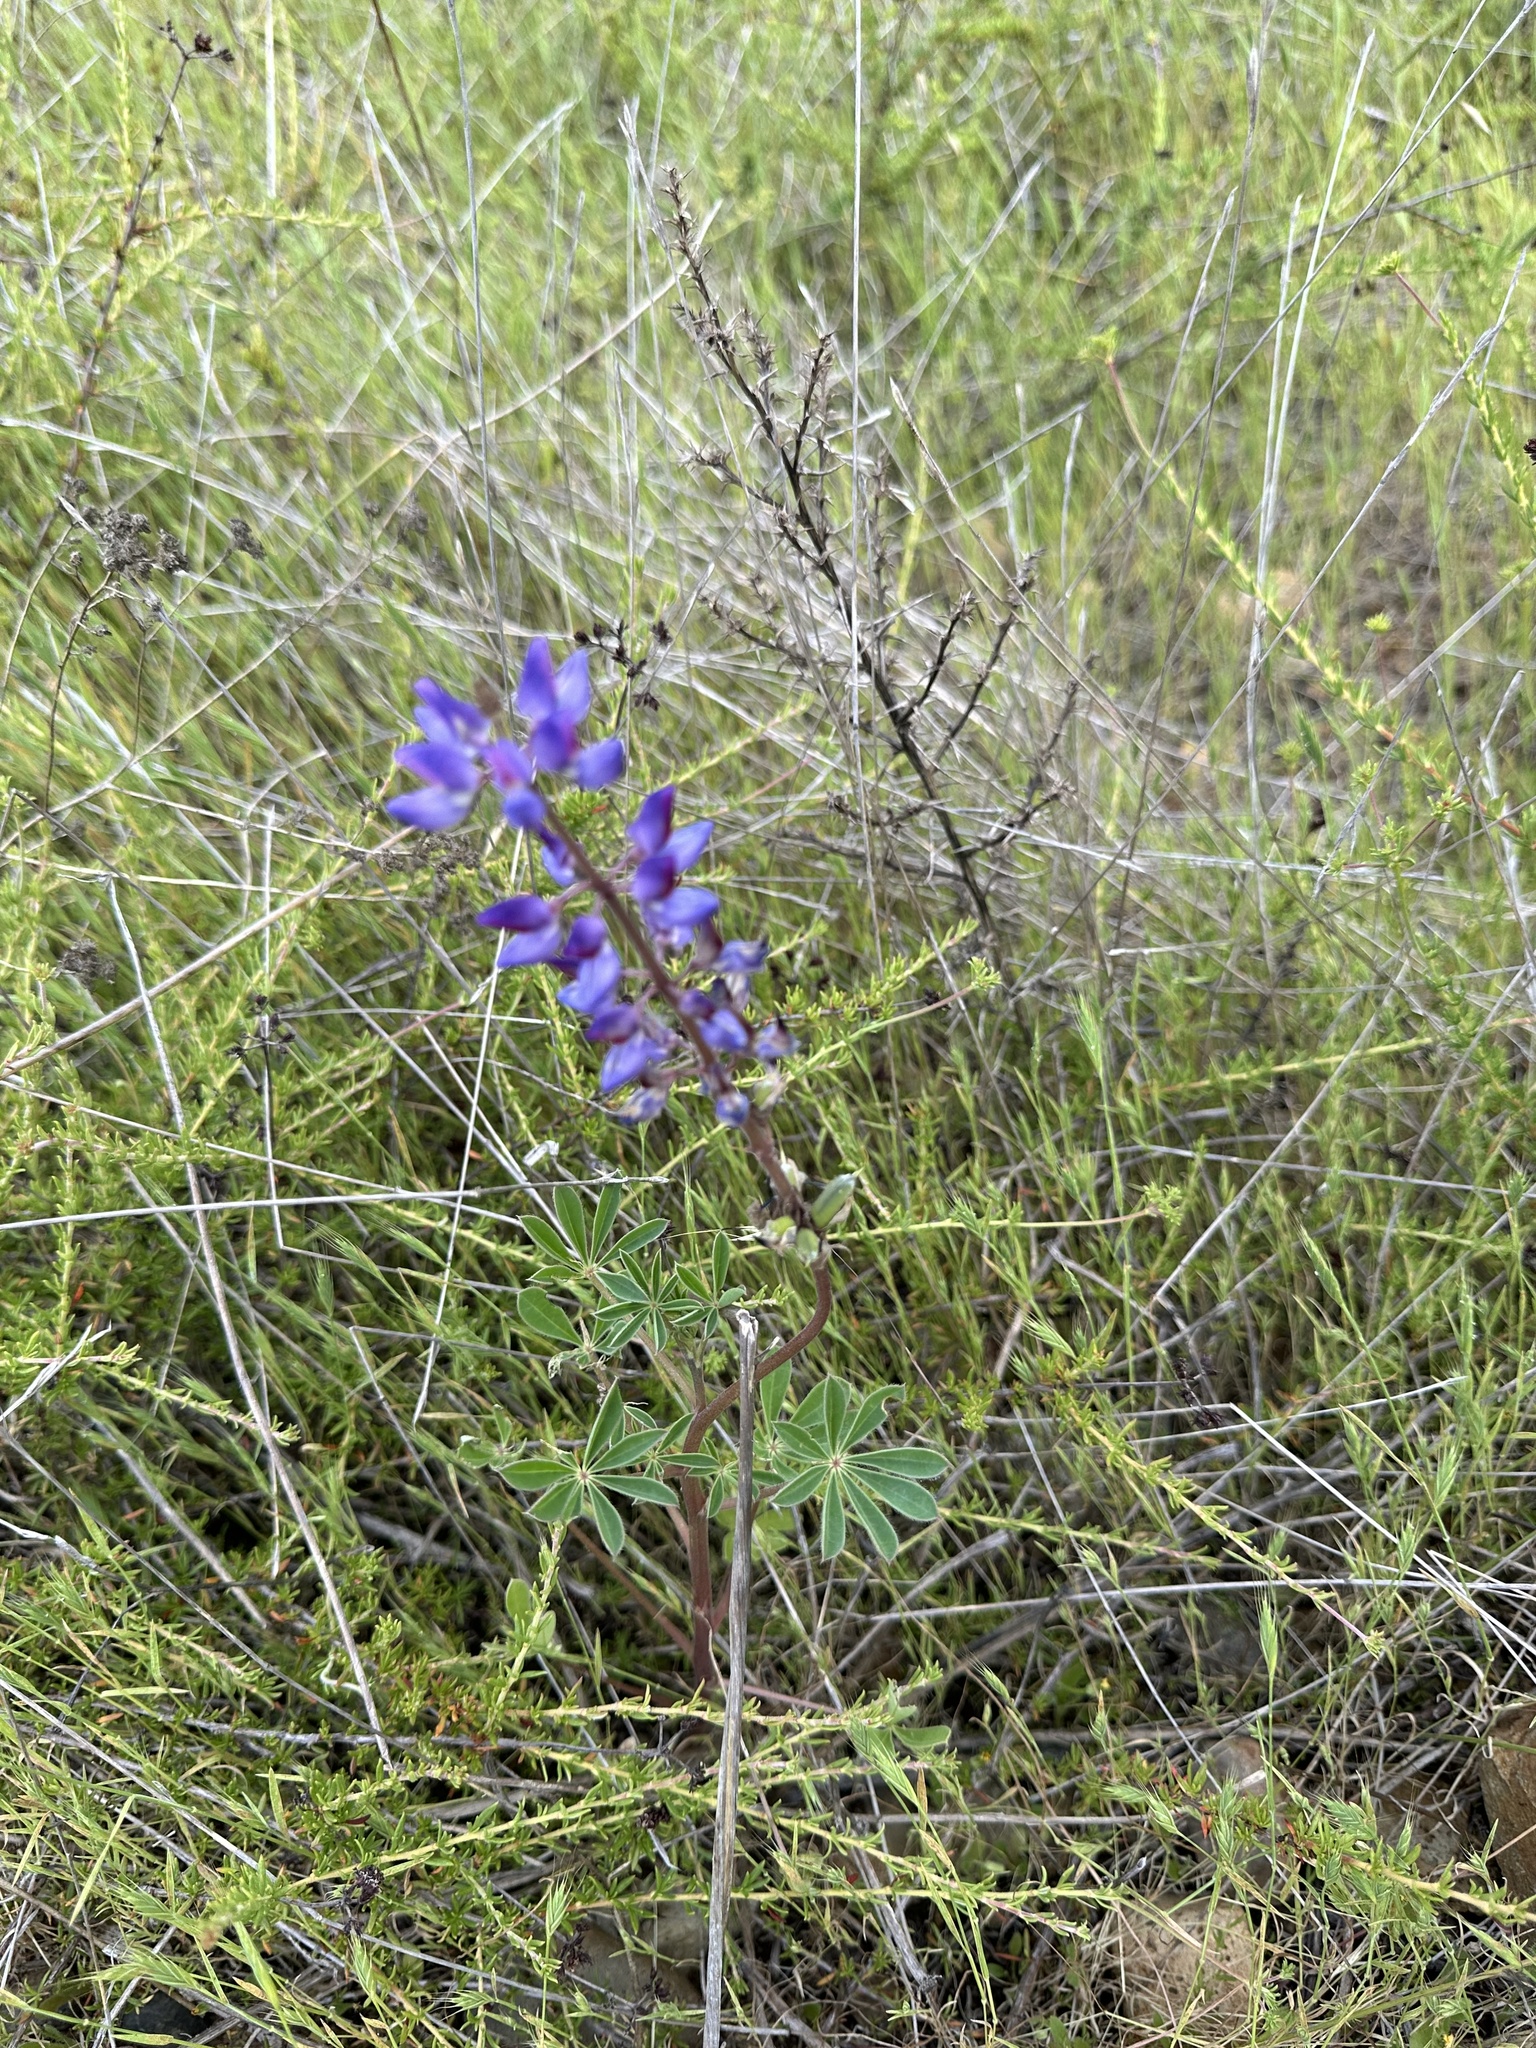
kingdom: Plantae
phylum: Tracheophyta
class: Magnoliopsida
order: Fabales
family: Fabaceae
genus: Lupinus
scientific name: Lupinus succulentus
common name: Arroyo lupine
